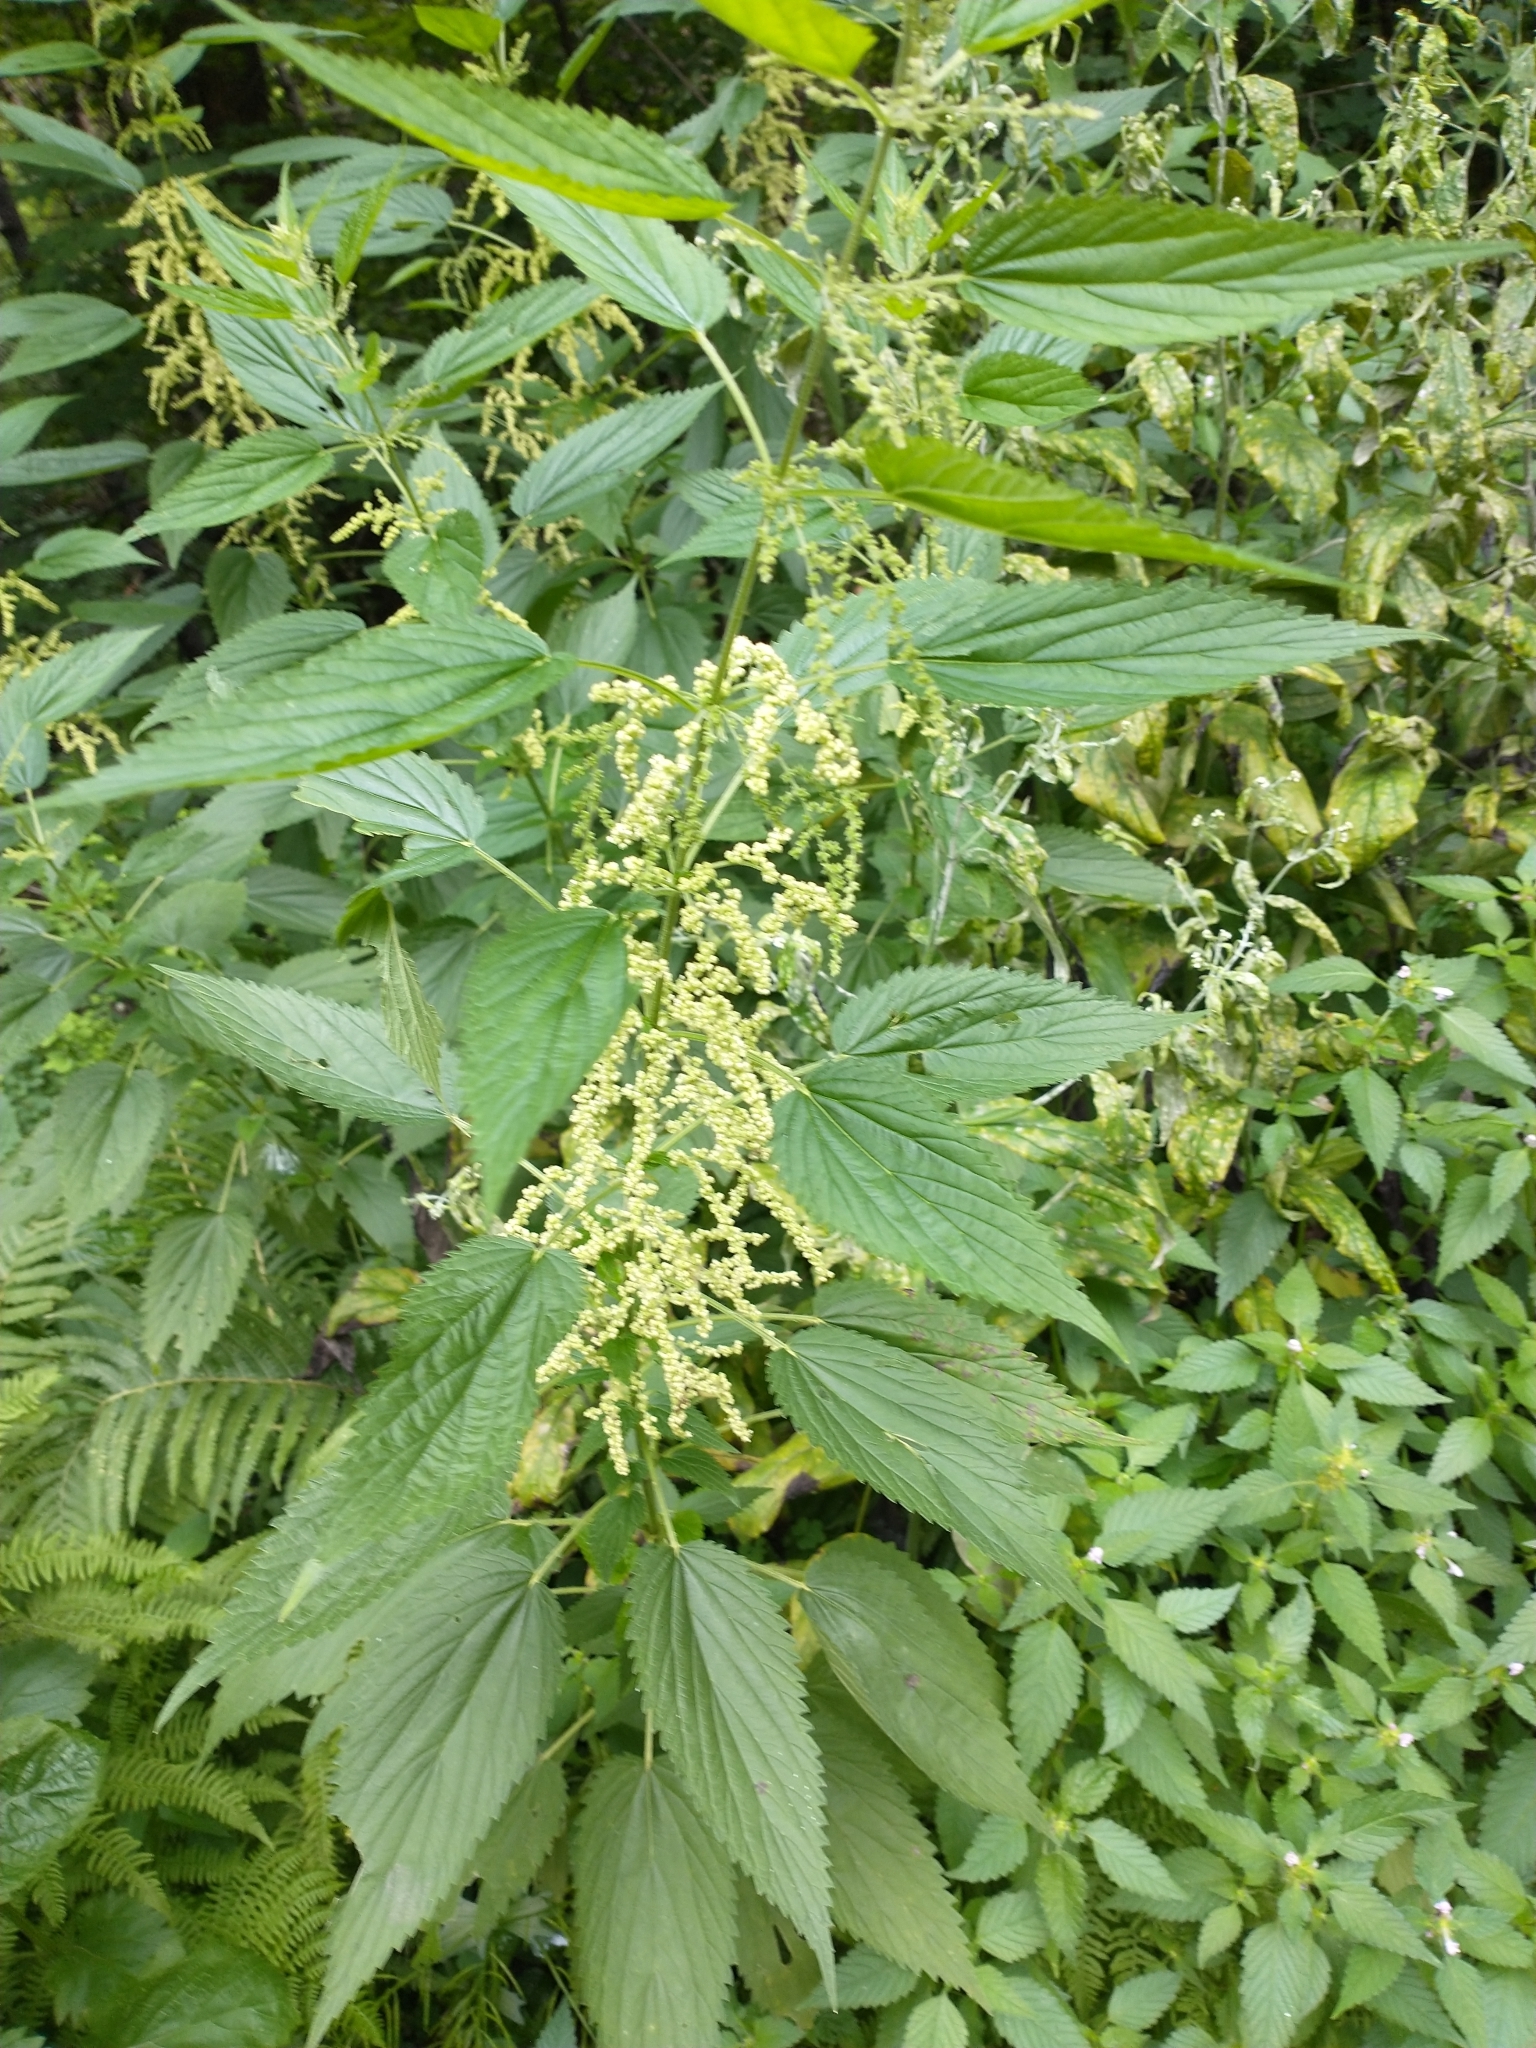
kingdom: Plantae
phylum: Tracheophyta
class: Magnoliopsida
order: Rosales
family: Urticaceae
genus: Urtica
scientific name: Urtica dioica
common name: Common nettle
